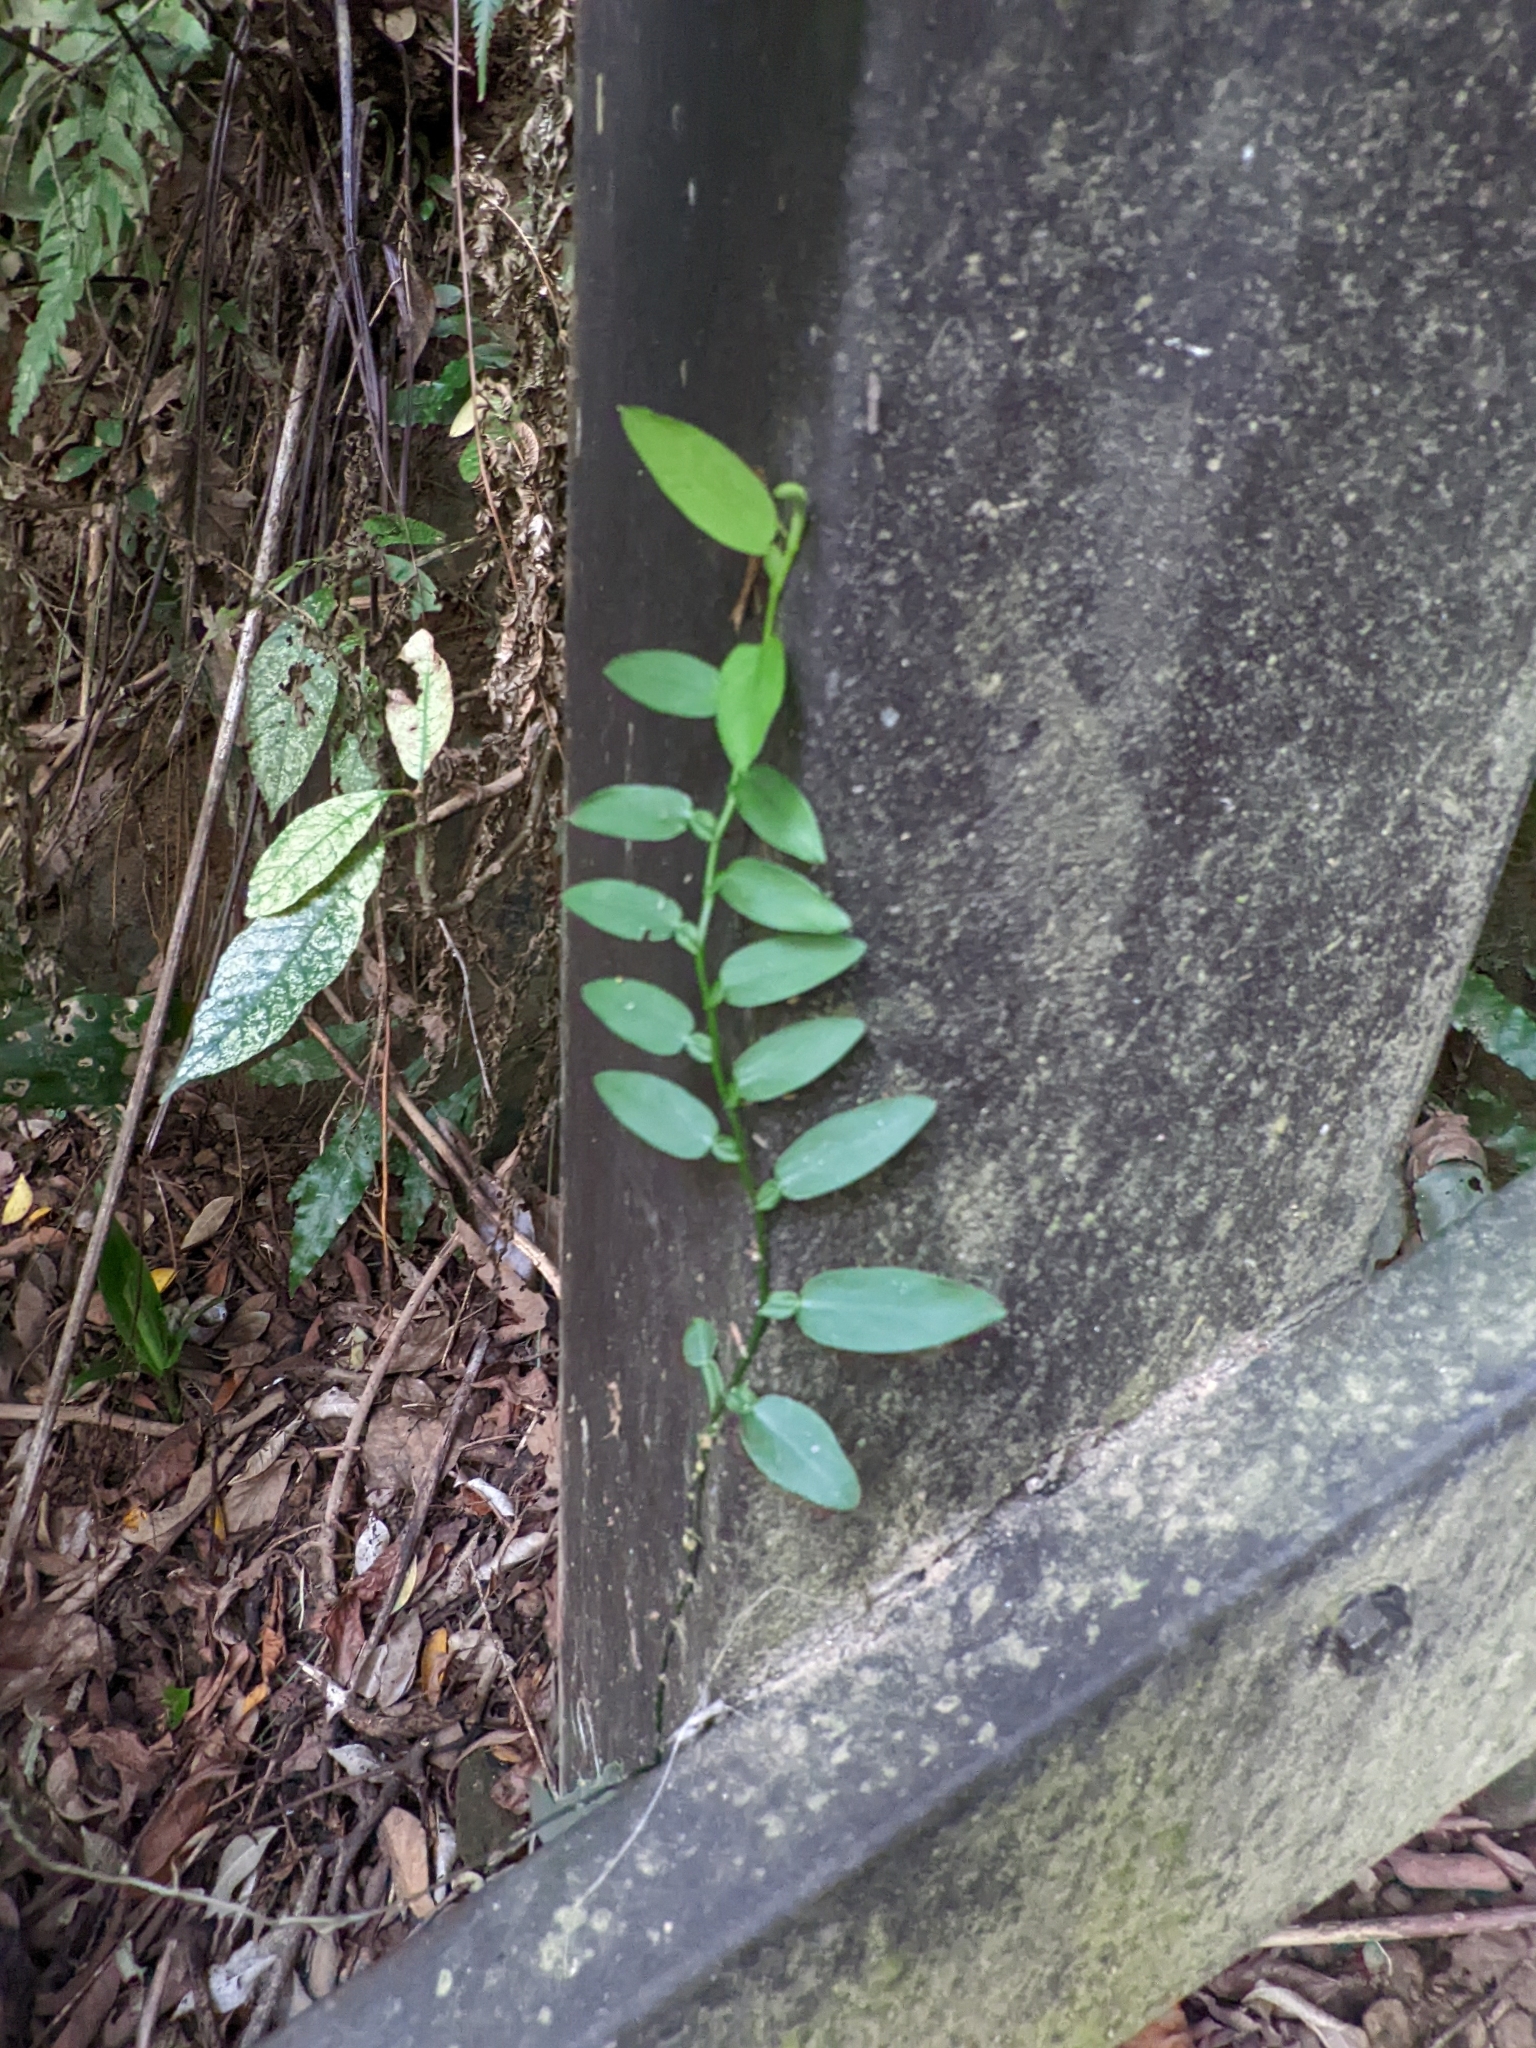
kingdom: Plantae
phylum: Tracheophyta
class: Liliopsida
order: Alismatales
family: Araceae
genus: Pothos
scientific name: Pothos chinensis
